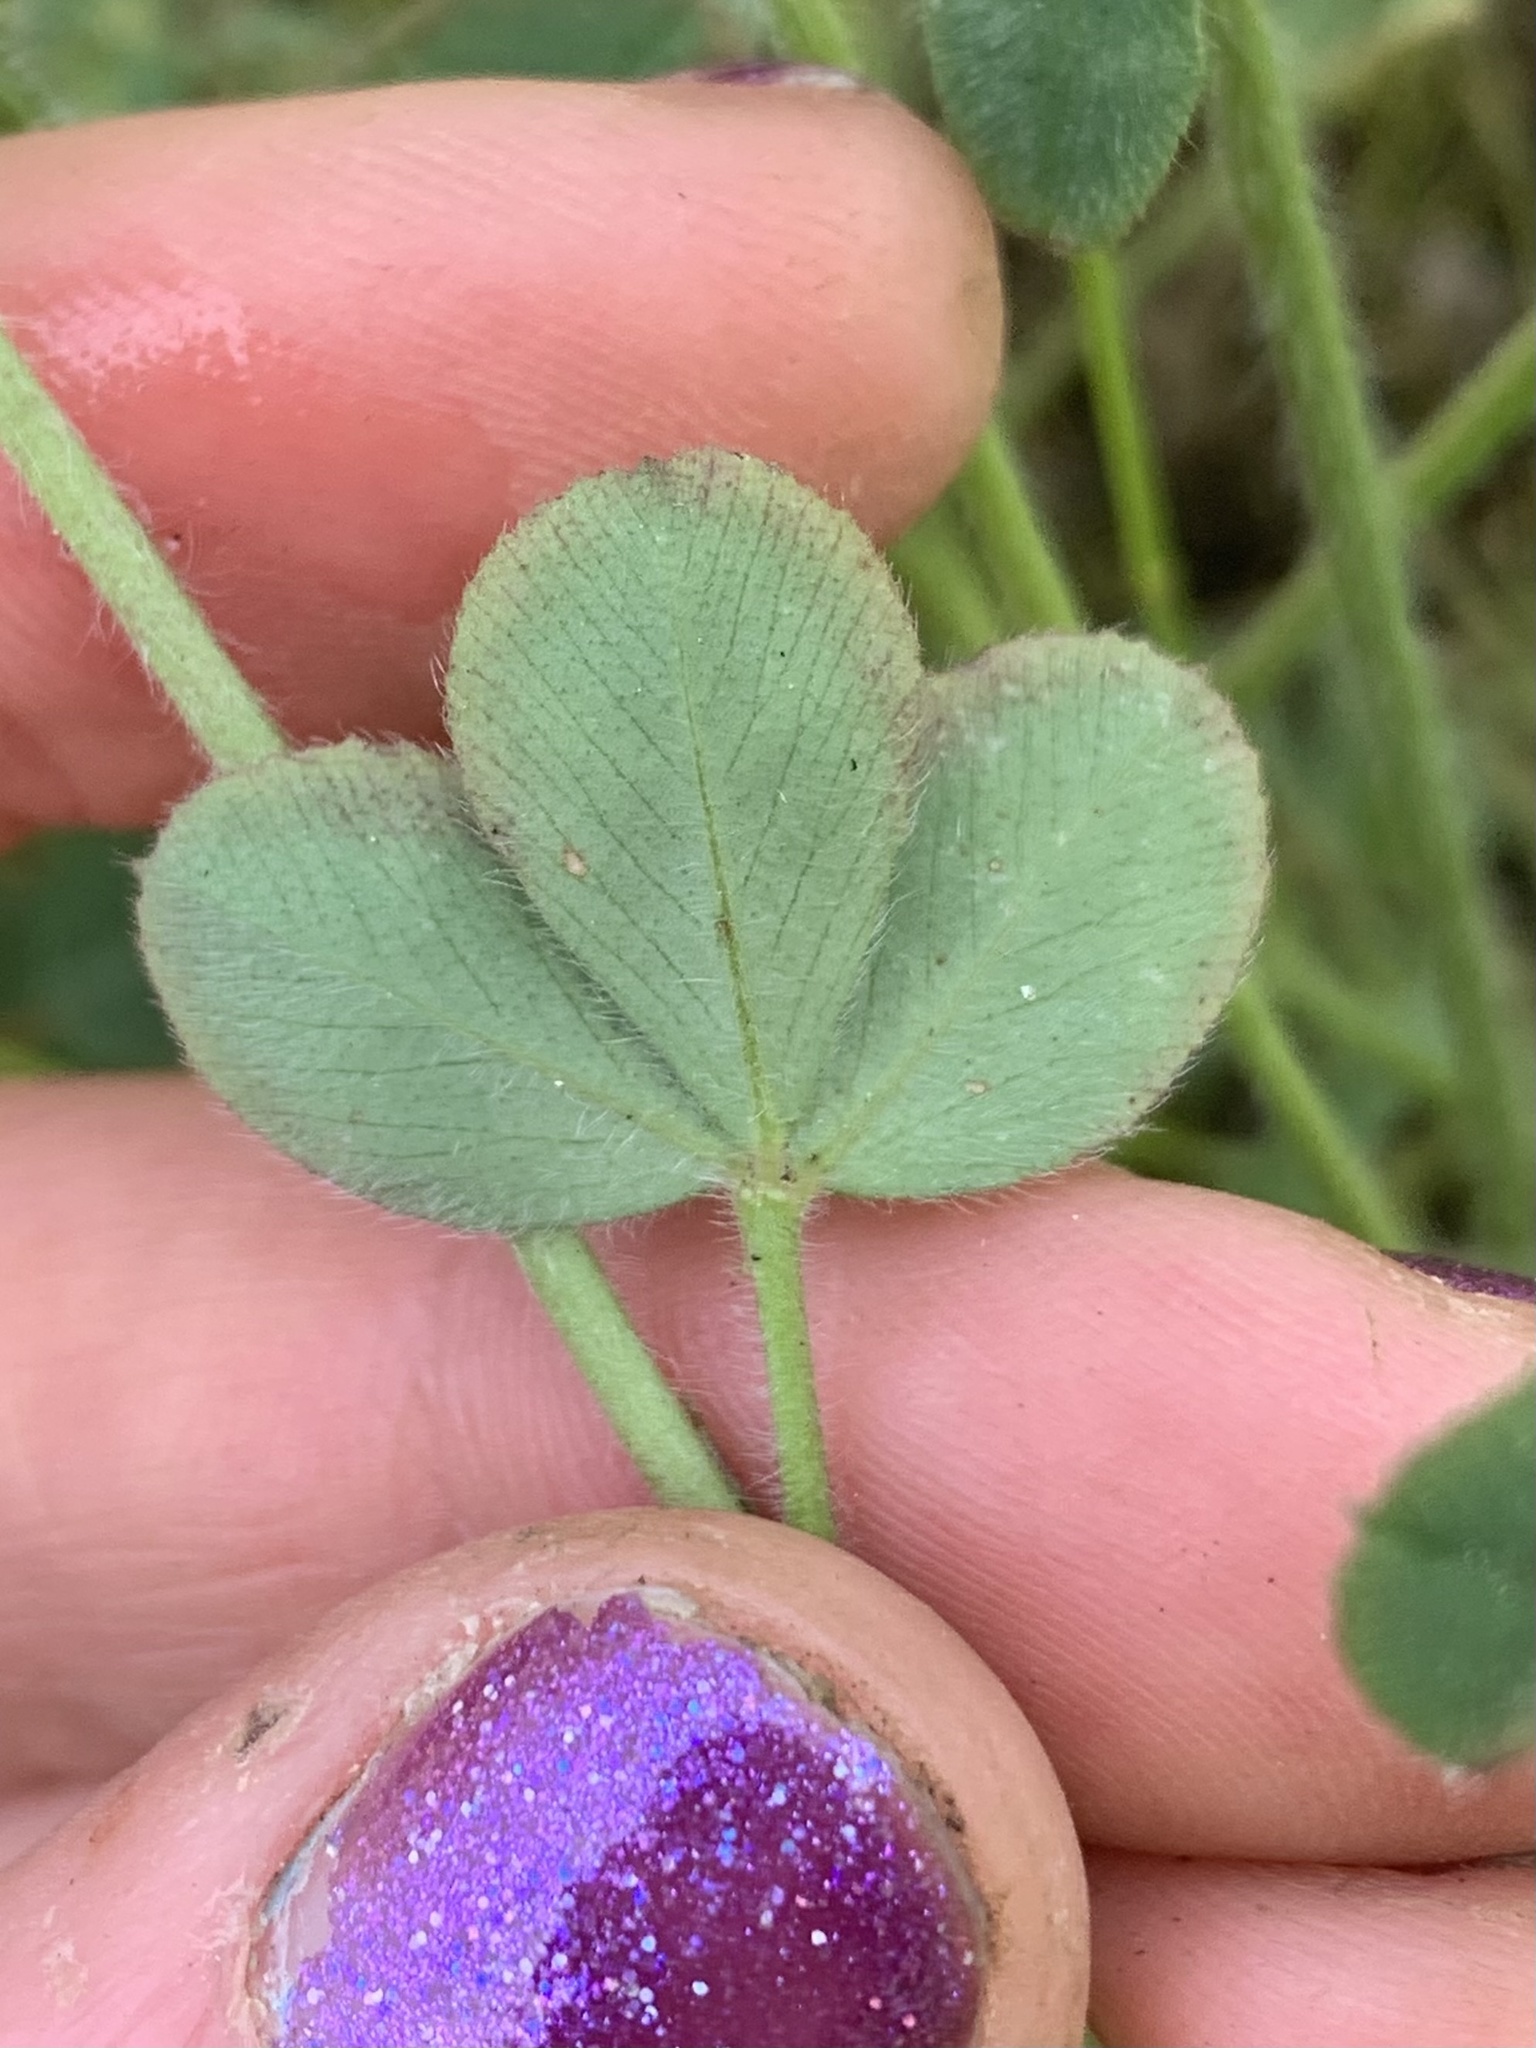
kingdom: Plantae
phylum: Tracheophyta
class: Magnoliopsida
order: Fabales
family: Fabaceae
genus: Trifolium
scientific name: Trifolium hirtum
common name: Rose clover
